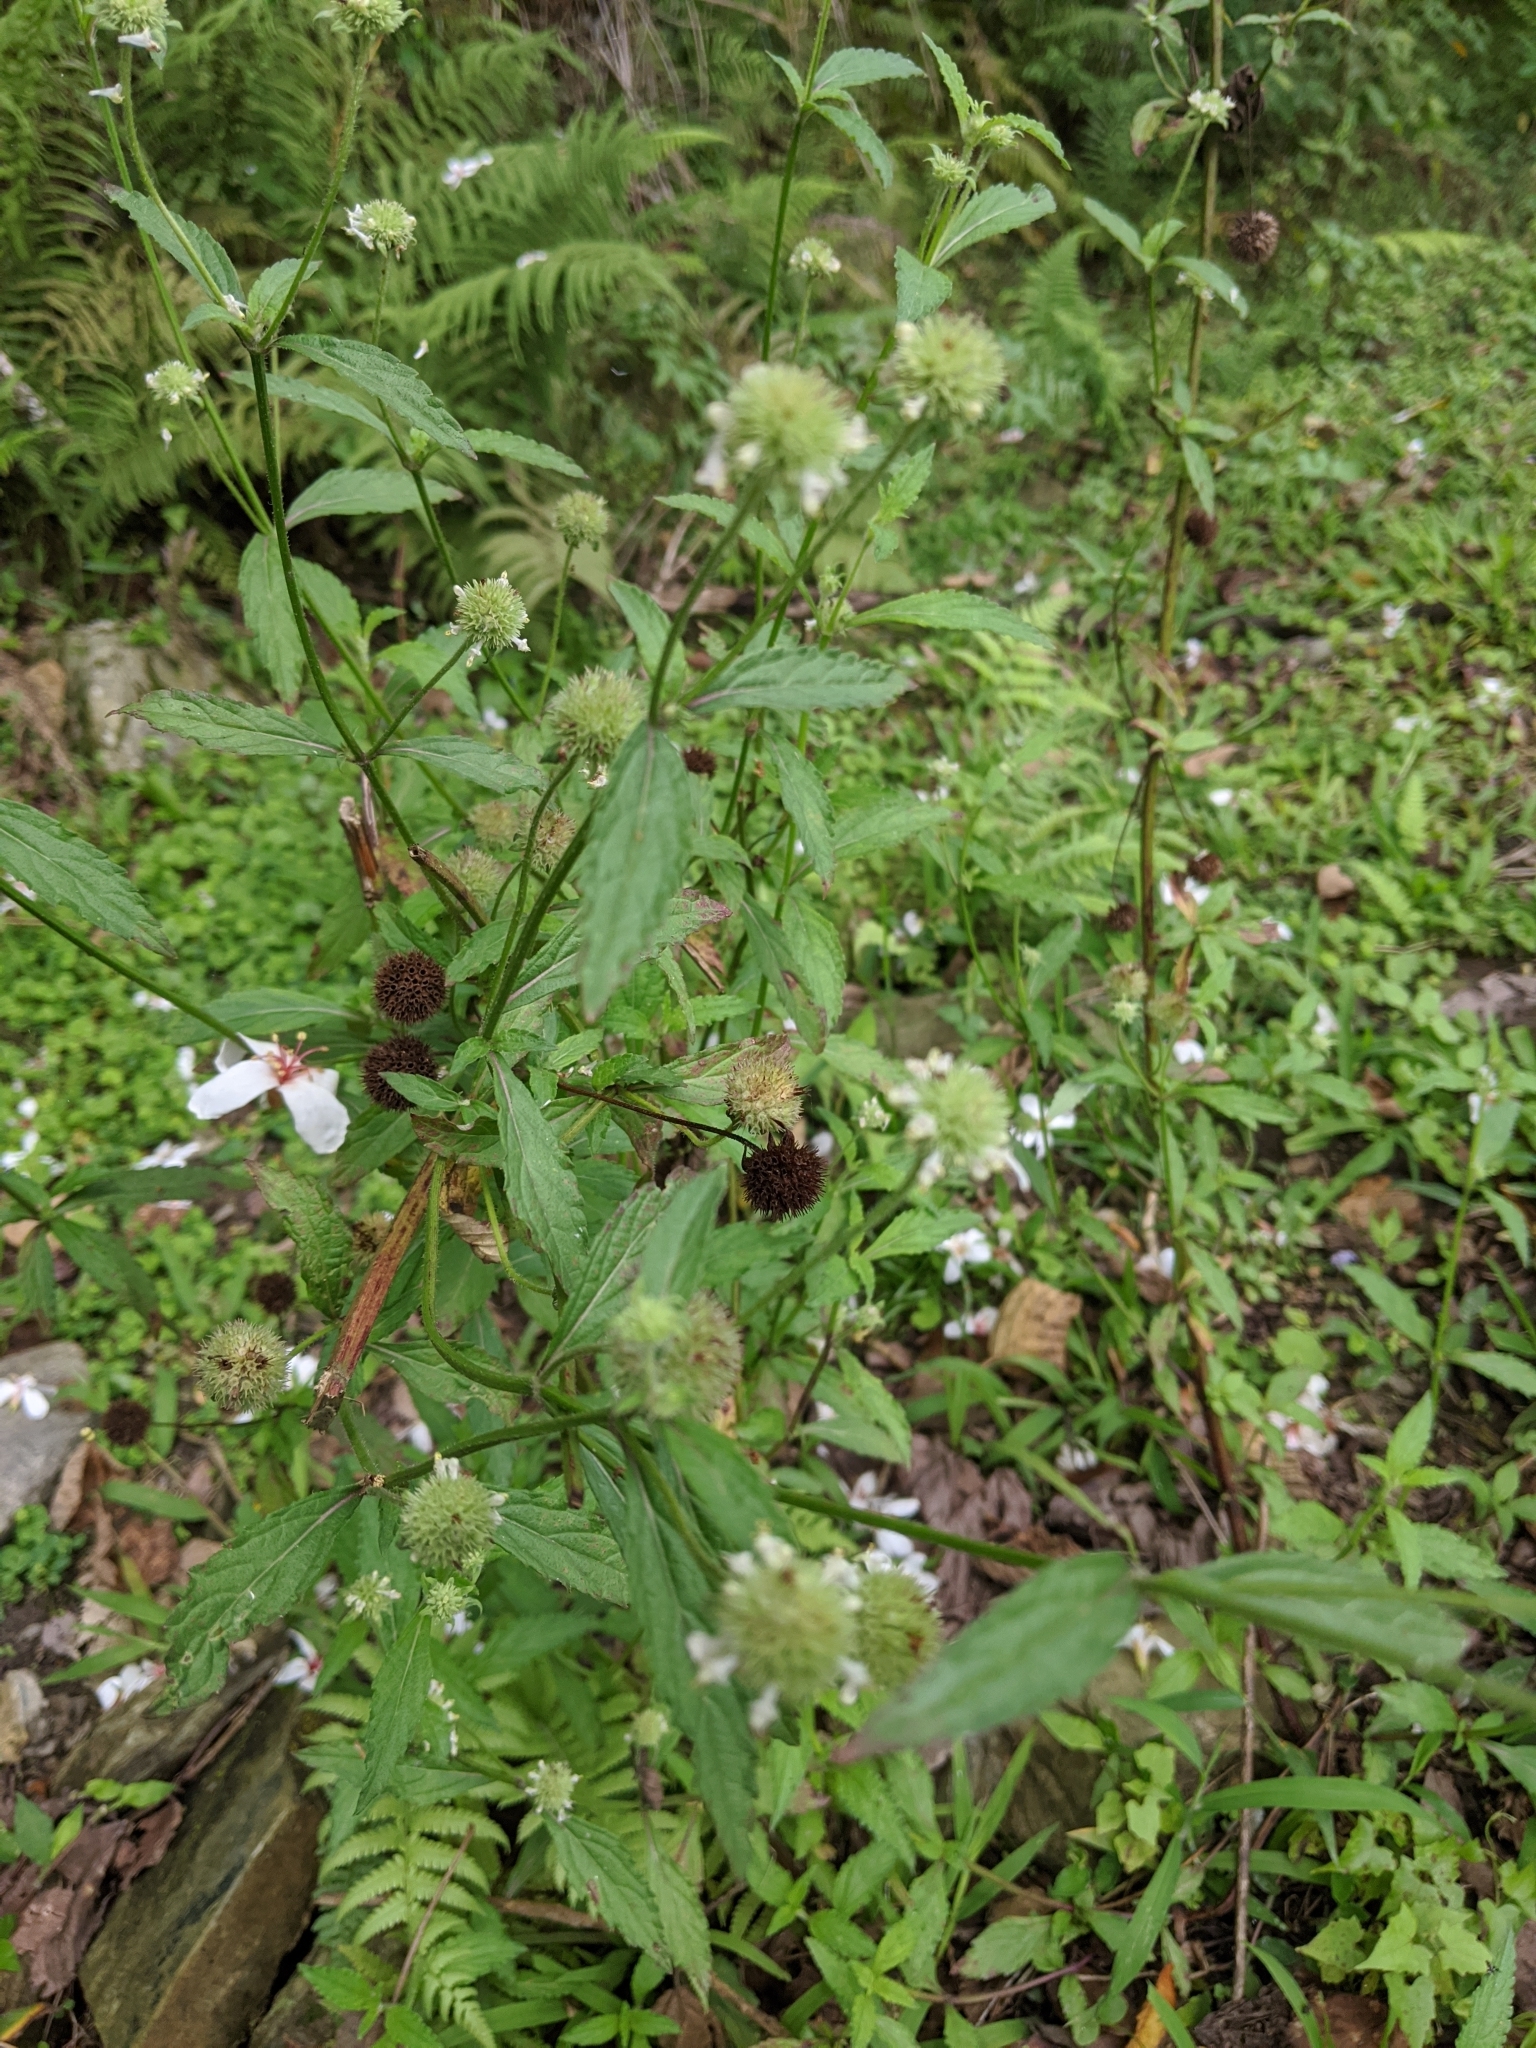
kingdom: Plantae
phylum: Tracheophyta
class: Magnoliopsida
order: Lamiales
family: Lamiaceae
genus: Hyptis
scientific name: Hyptis capitata
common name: False ironwort
